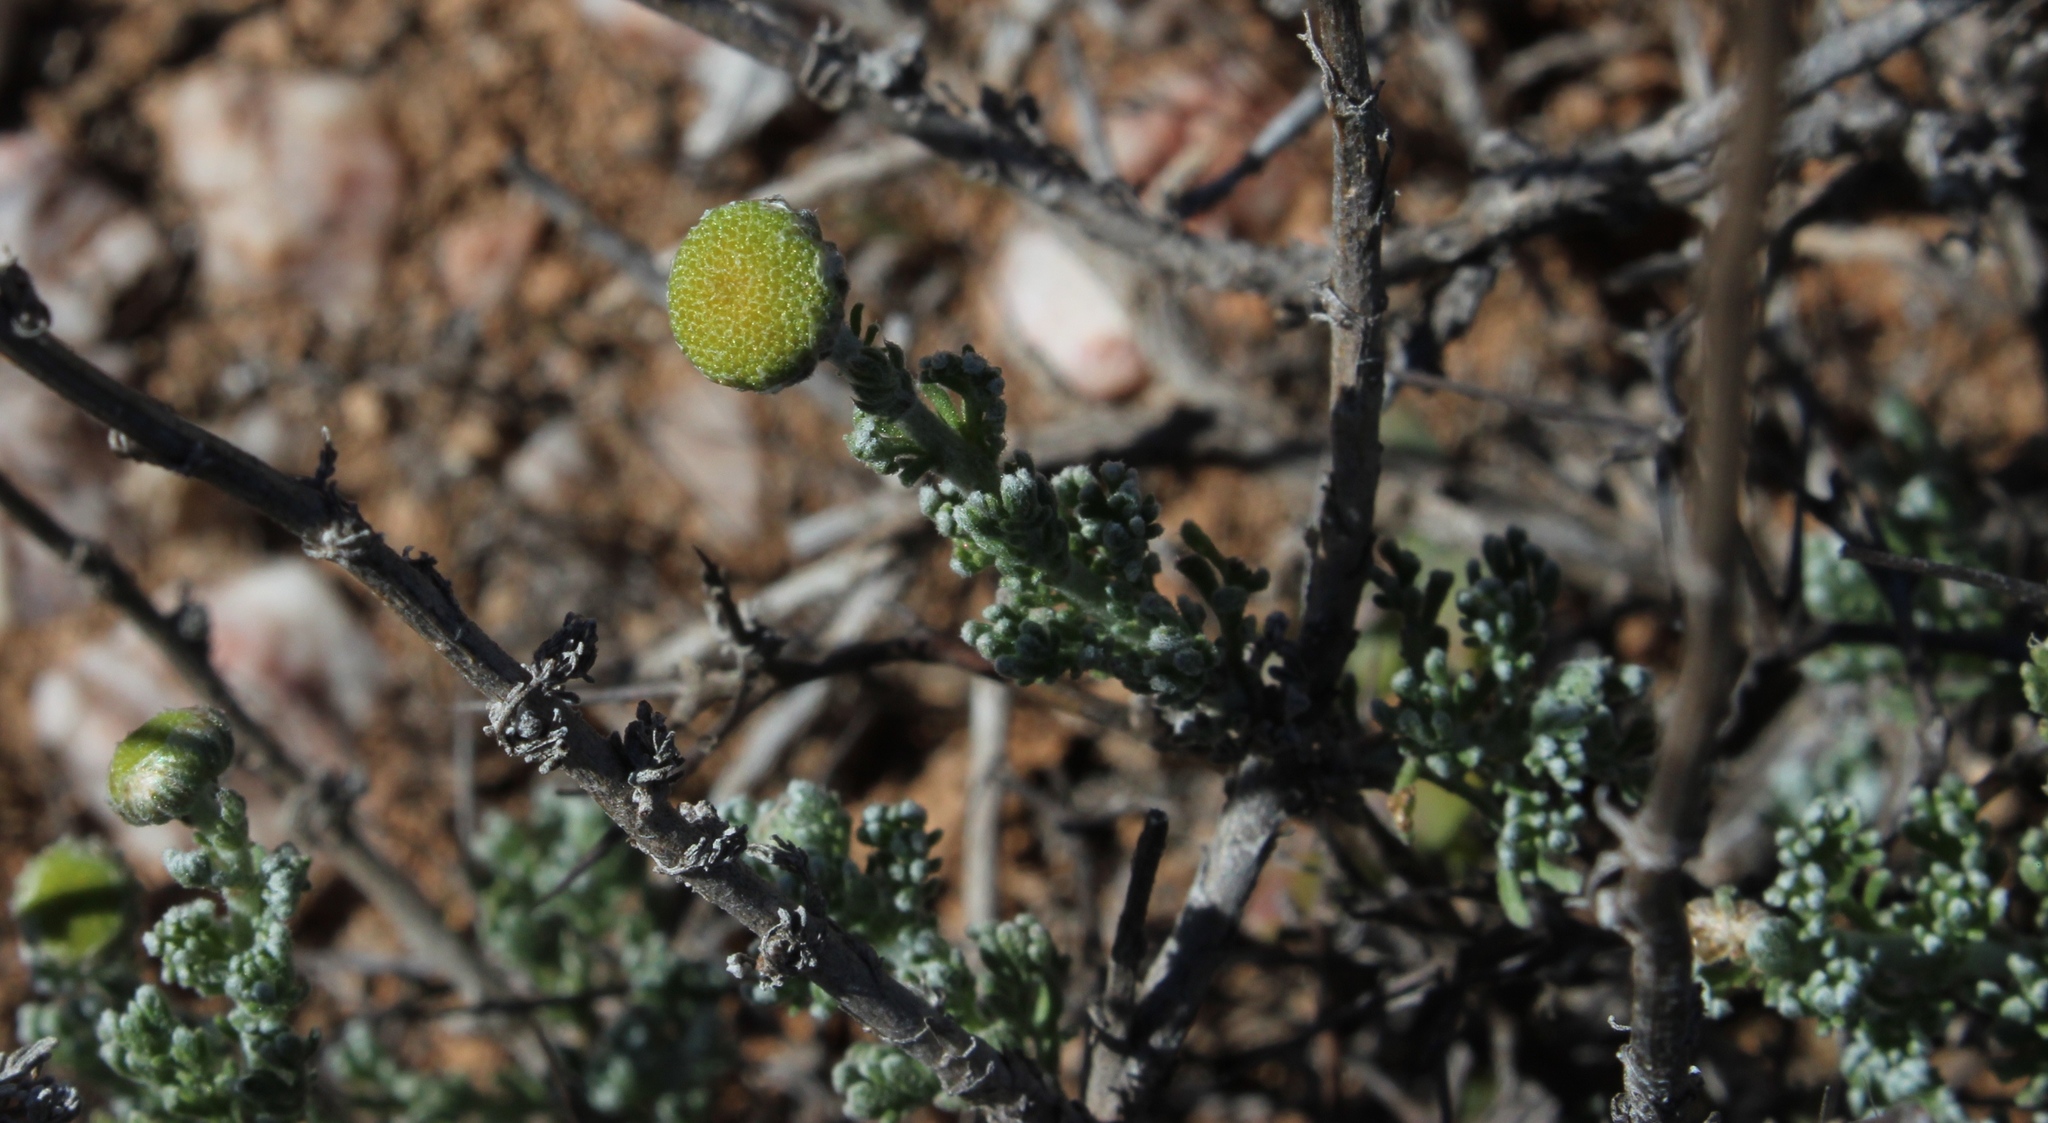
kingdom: Plantae
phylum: Tracheophyta
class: Magnoliopsida
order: Asterales
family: Asteraceae
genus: Pentzia
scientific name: Pentzia incana
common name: African sheepbush
